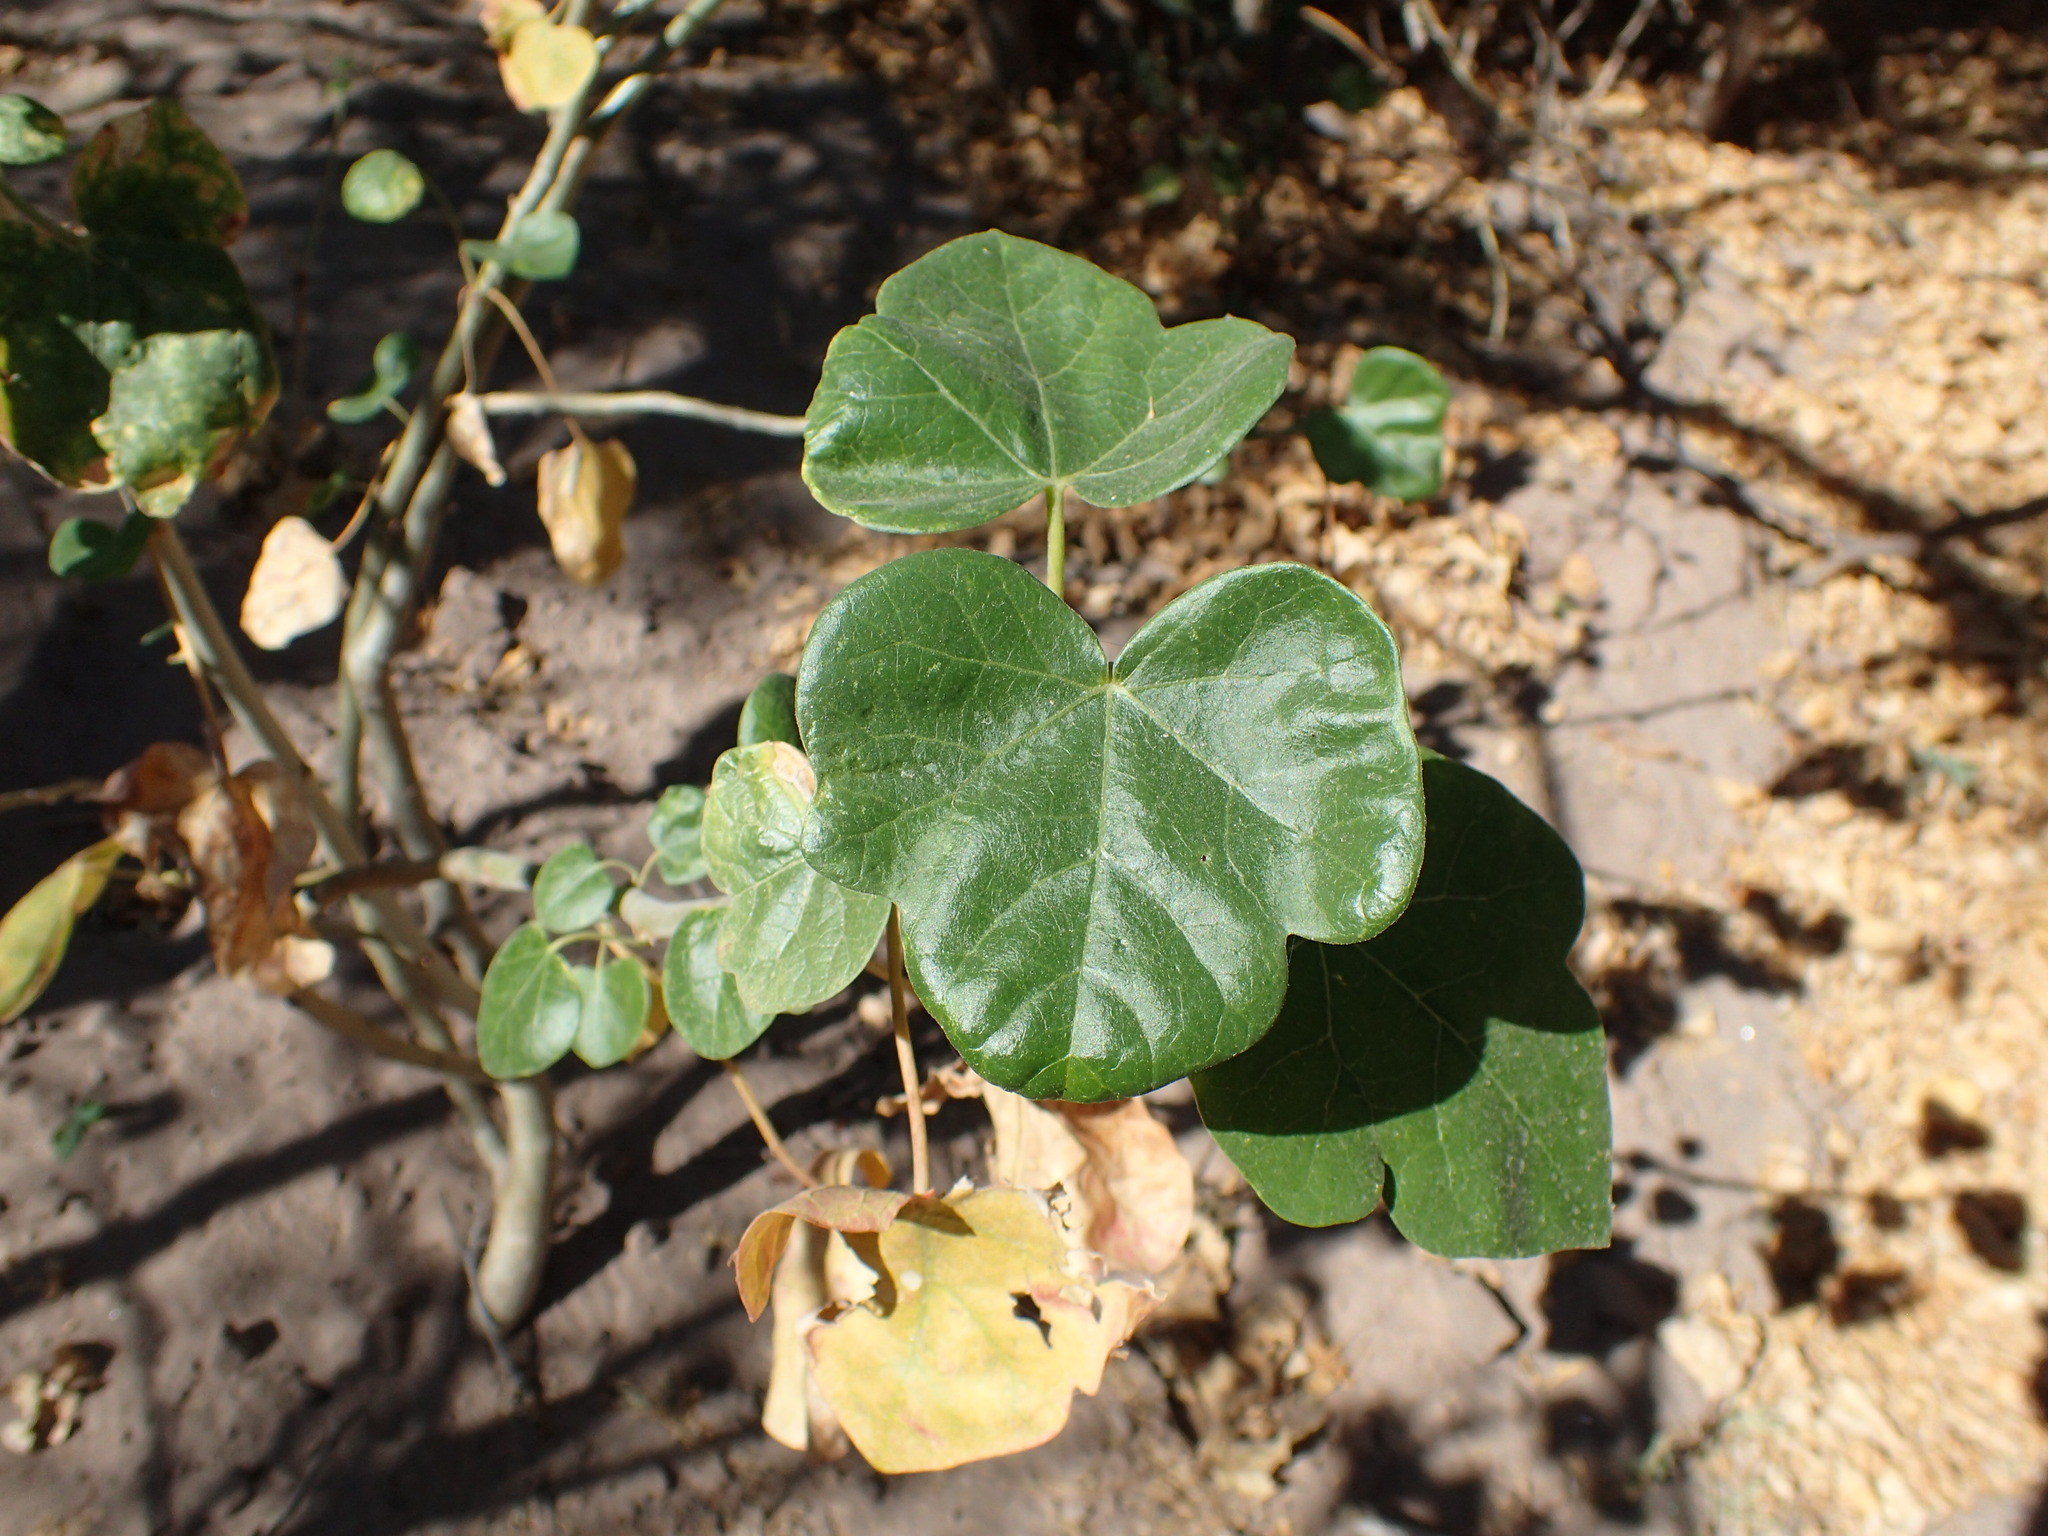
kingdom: Plantae
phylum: Tracheophyta
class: Magnoliopsida
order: Malpighiales
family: Euphorbiaceae
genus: Jatropha
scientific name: Jatropha cinerea
